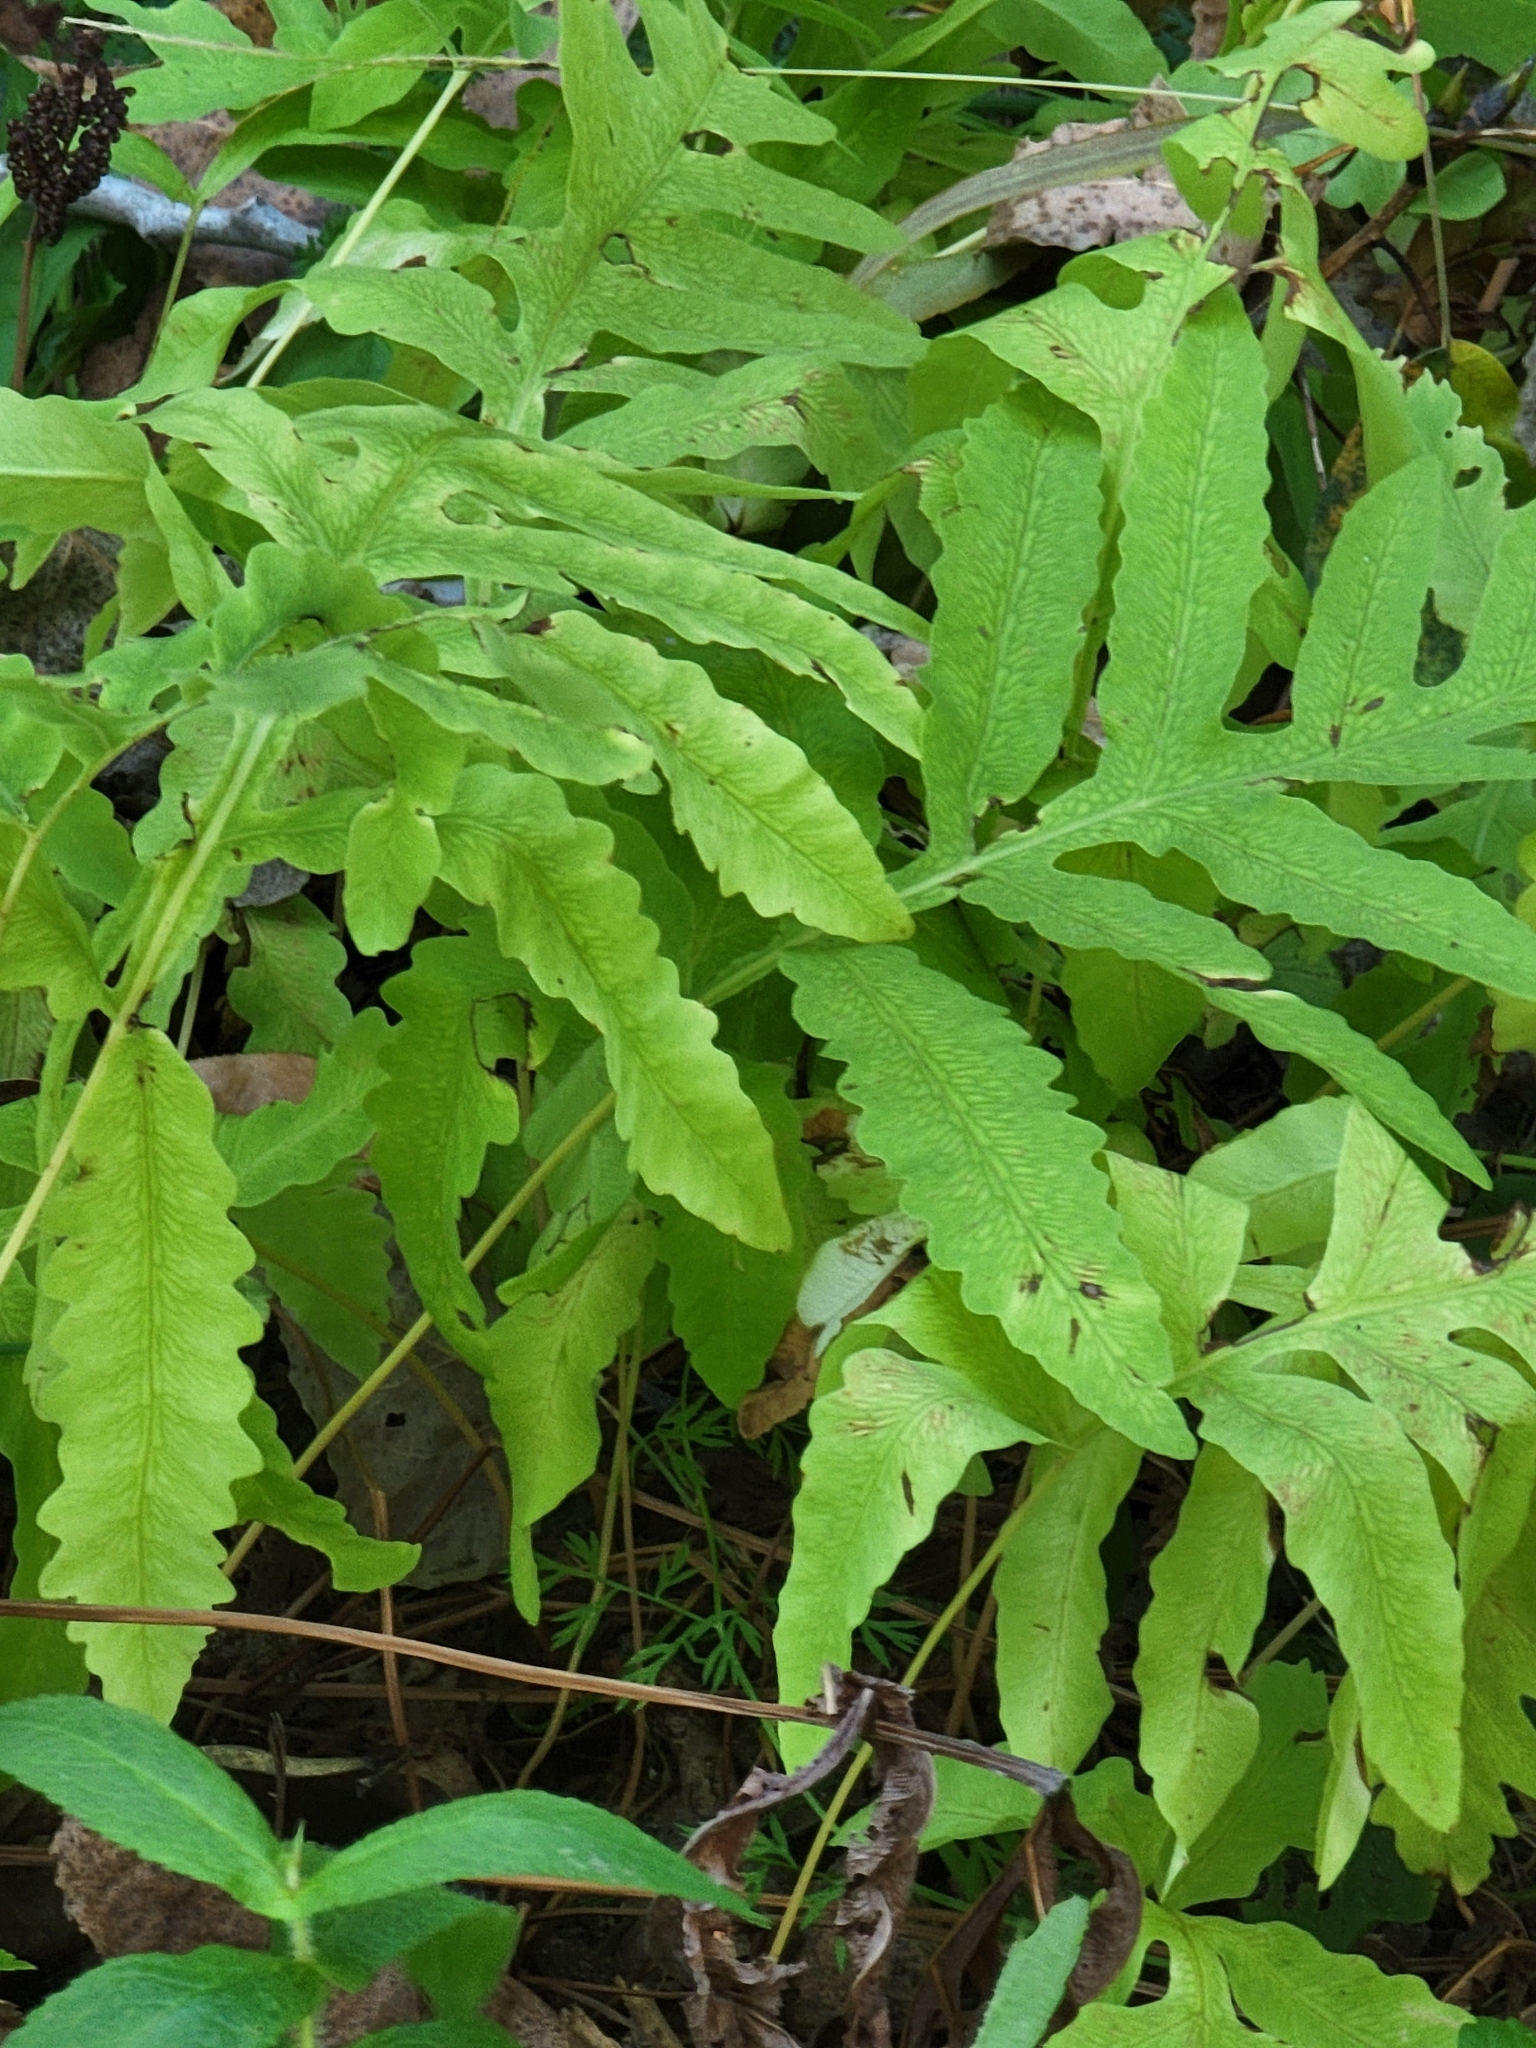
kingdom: Plantae
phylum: Tracheophyta
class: Polypodiopsida
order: Polypodiales
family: Onocleaceae
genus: Onoclea
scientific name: Onoclea sensibilis
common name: Sensitive fern
